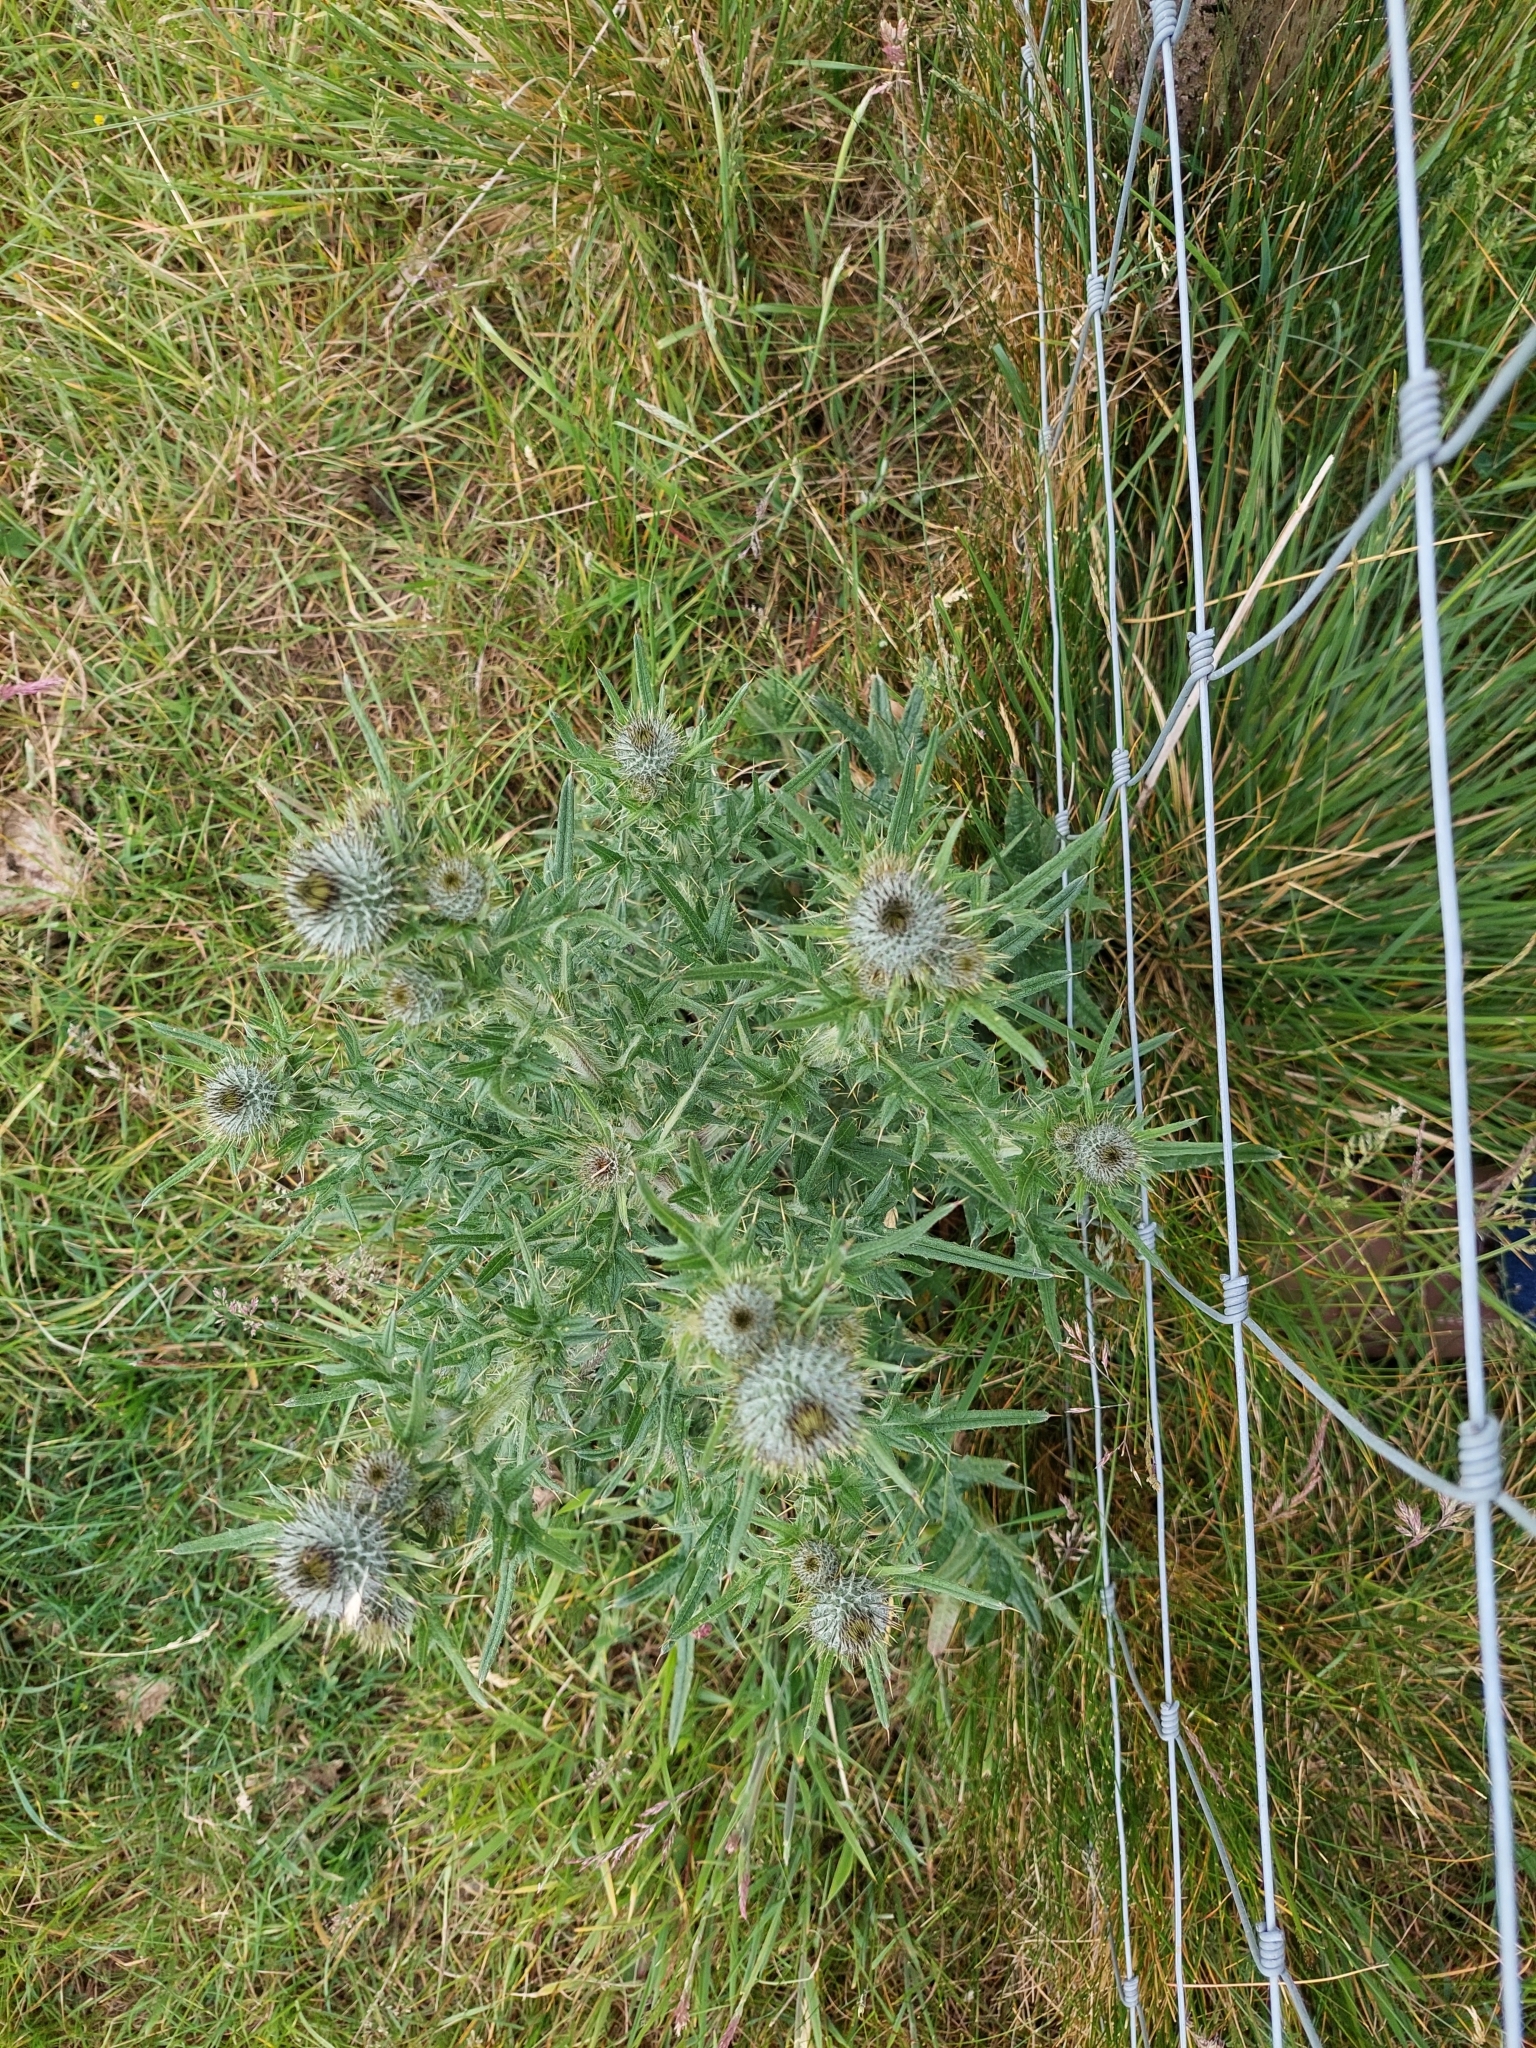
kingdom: Plantae
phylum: Tracheophyta
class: Magnoliopsida
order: Asterales
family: Asteraceae
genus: Cirsium
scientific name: Cirsium vulgare
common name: Bull thistle
